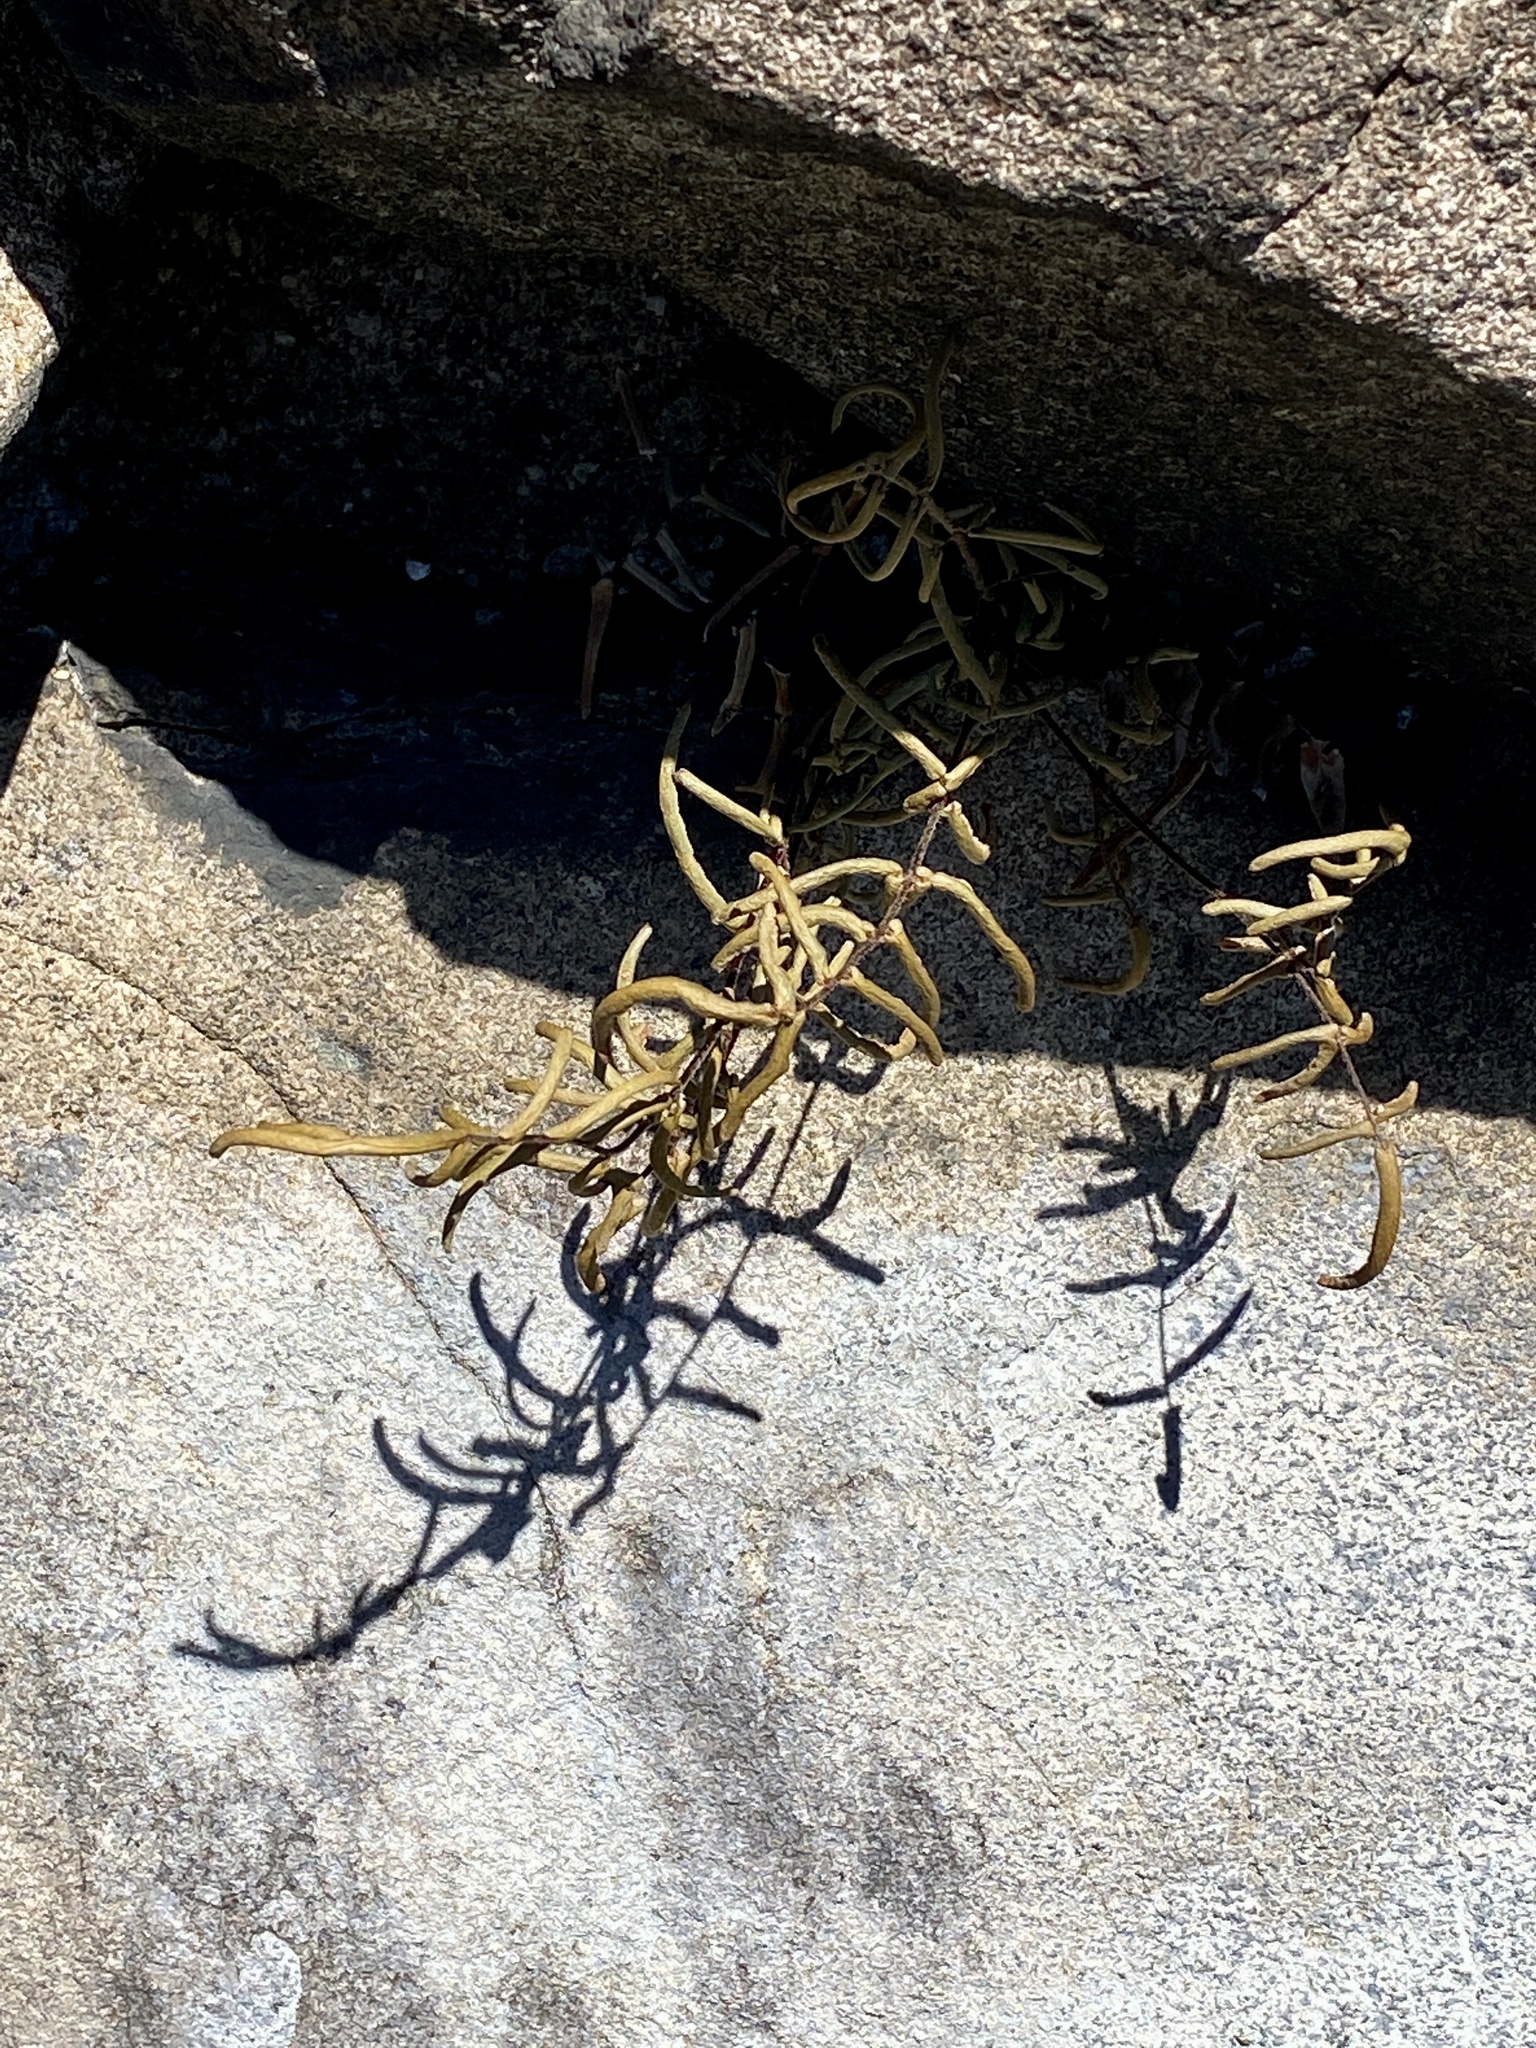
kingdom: Plantae
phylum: Tracheophyta
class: Polypodiopsida
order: Polypodiales
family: Pteridaceae
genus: Pellaea
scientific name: Pellaea atropurpurea
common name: Hairy cliffbrake
